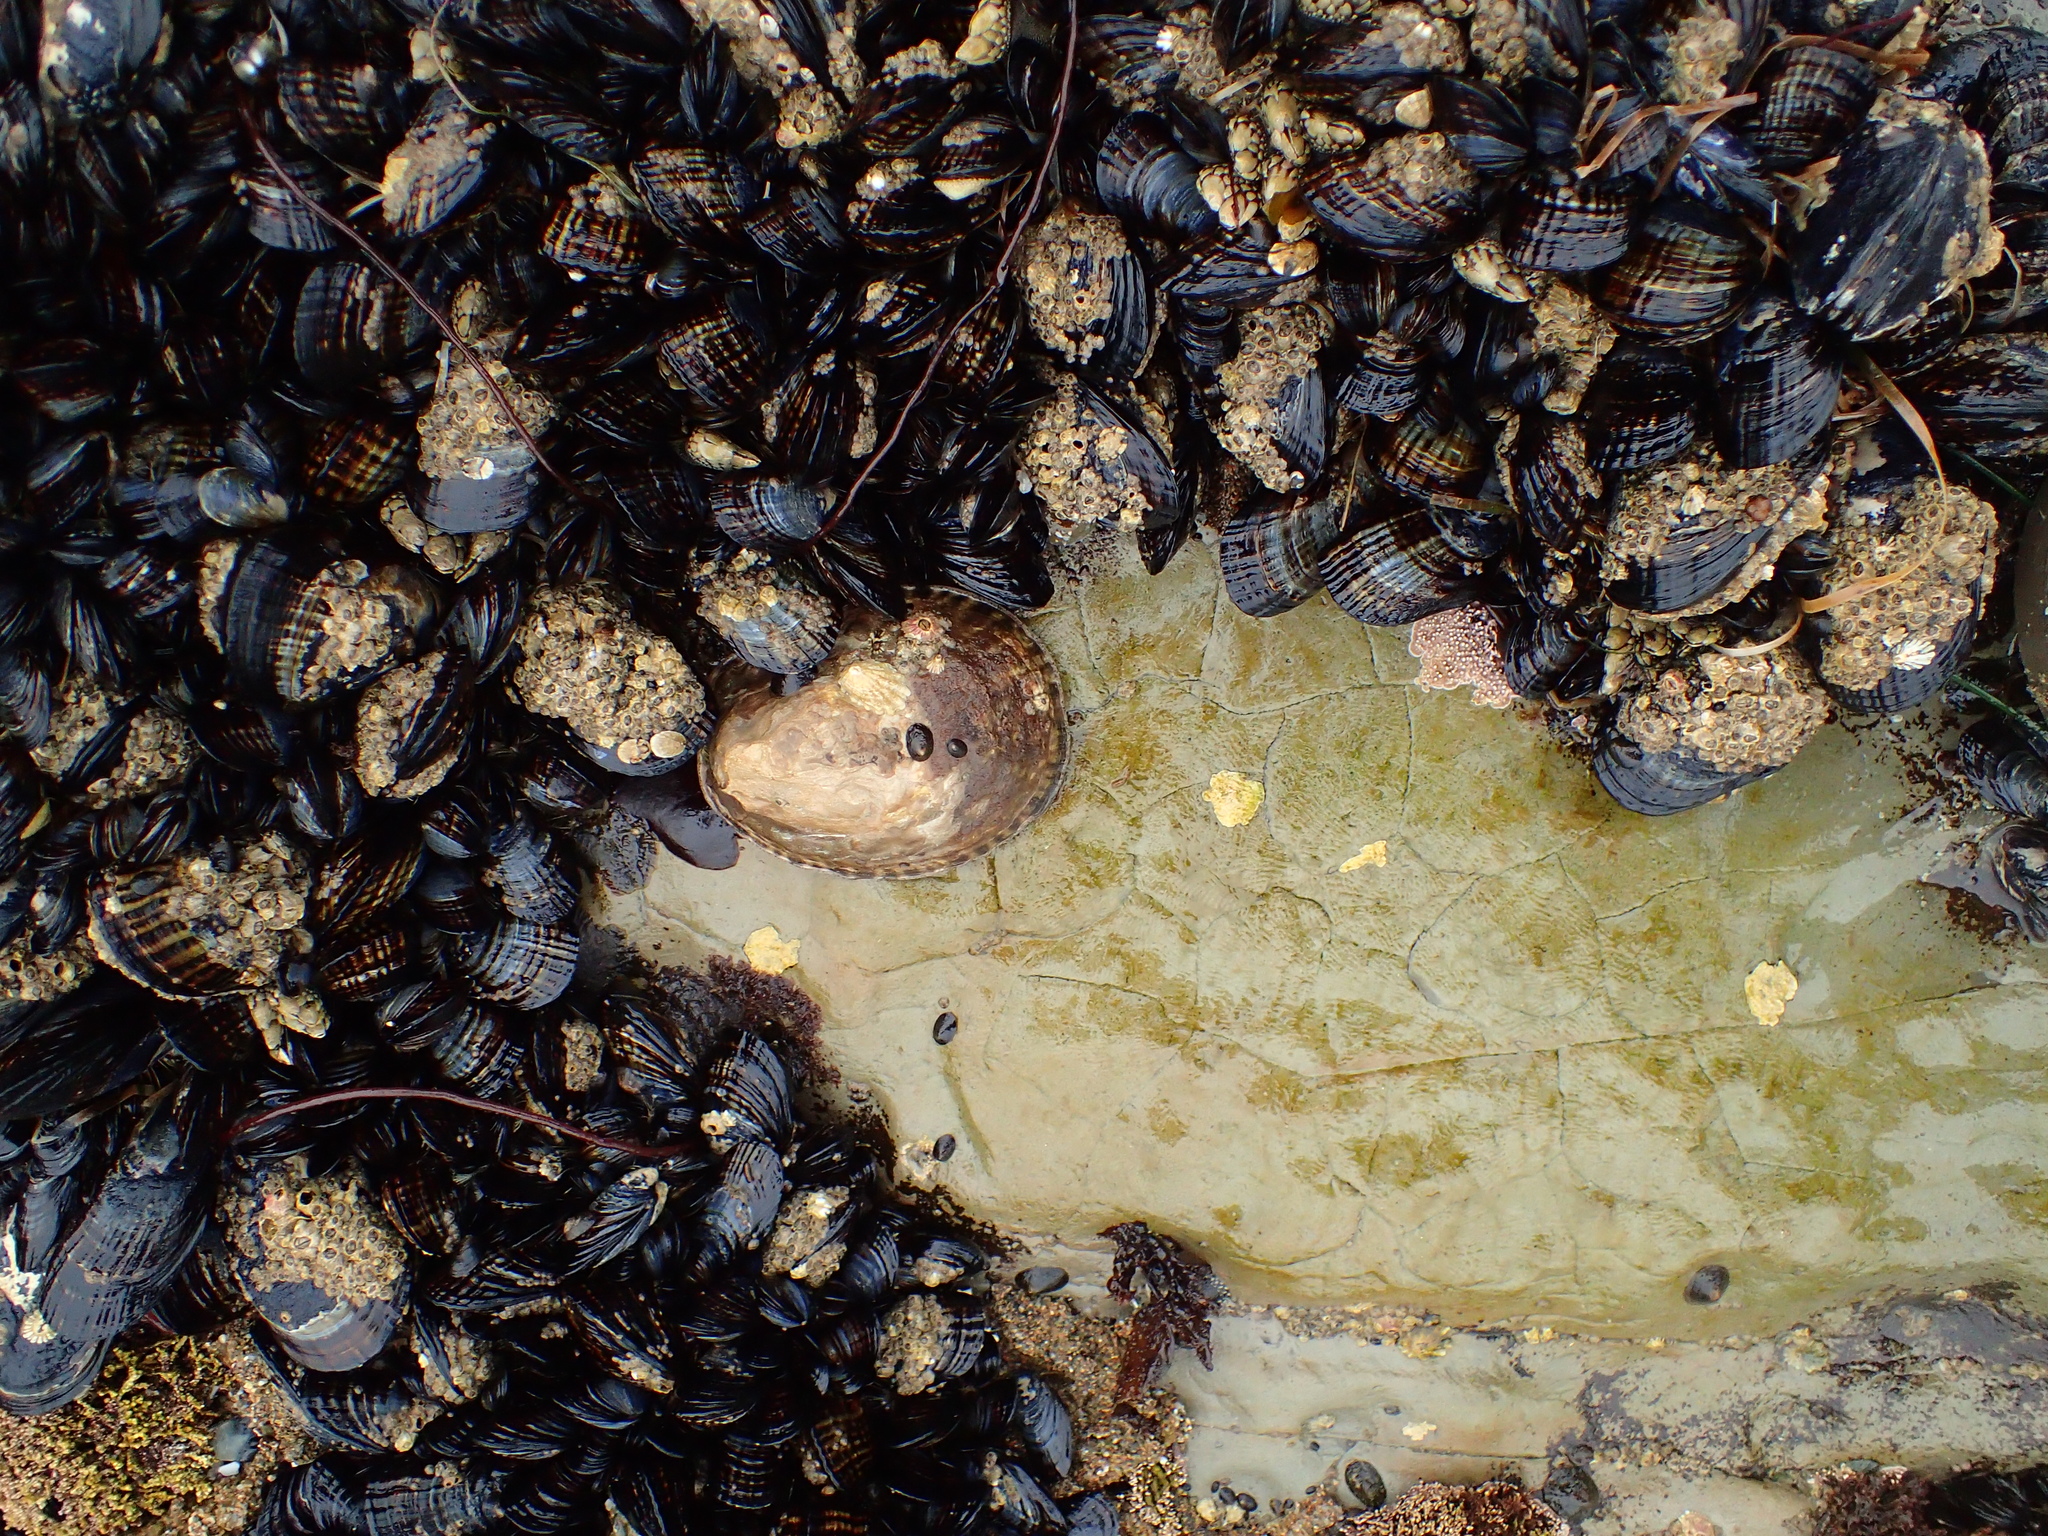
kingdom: Animalia
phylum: Mollusca
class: Gastropoda
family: Lottiidae
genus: Lottia
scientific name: Lottia gigantea
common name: Owl limpet
